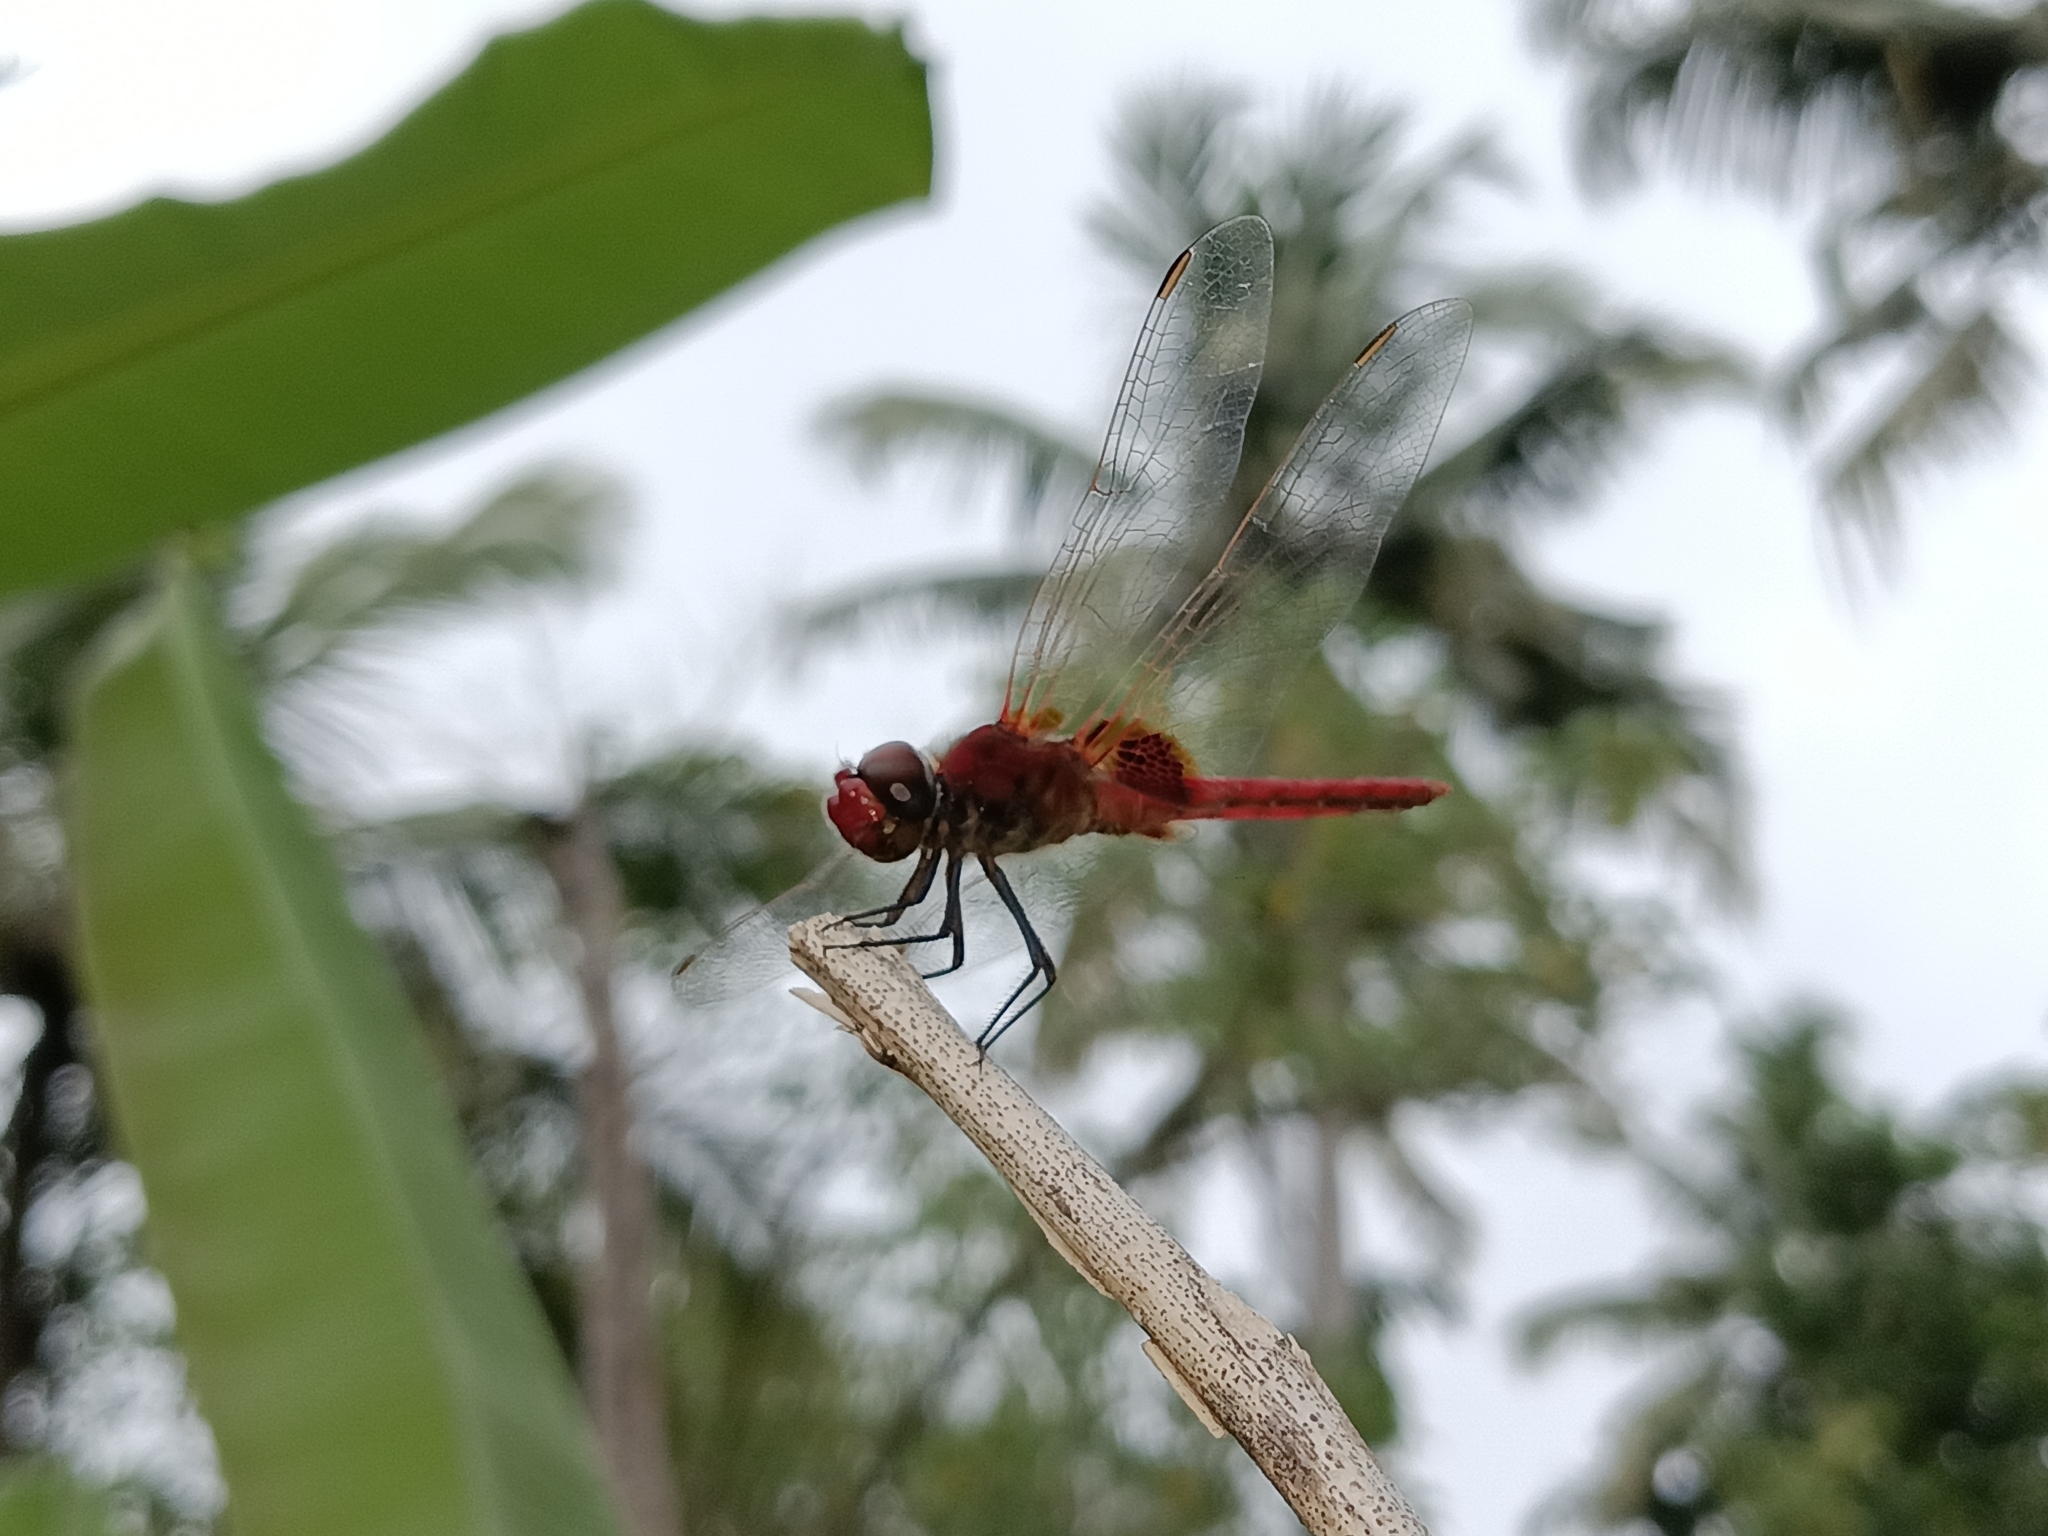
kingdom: Animalia
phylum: Arthropoda
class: Insecta
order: Odonata
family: Libellulidae
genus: Urothemis
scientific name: Urothemis signata
